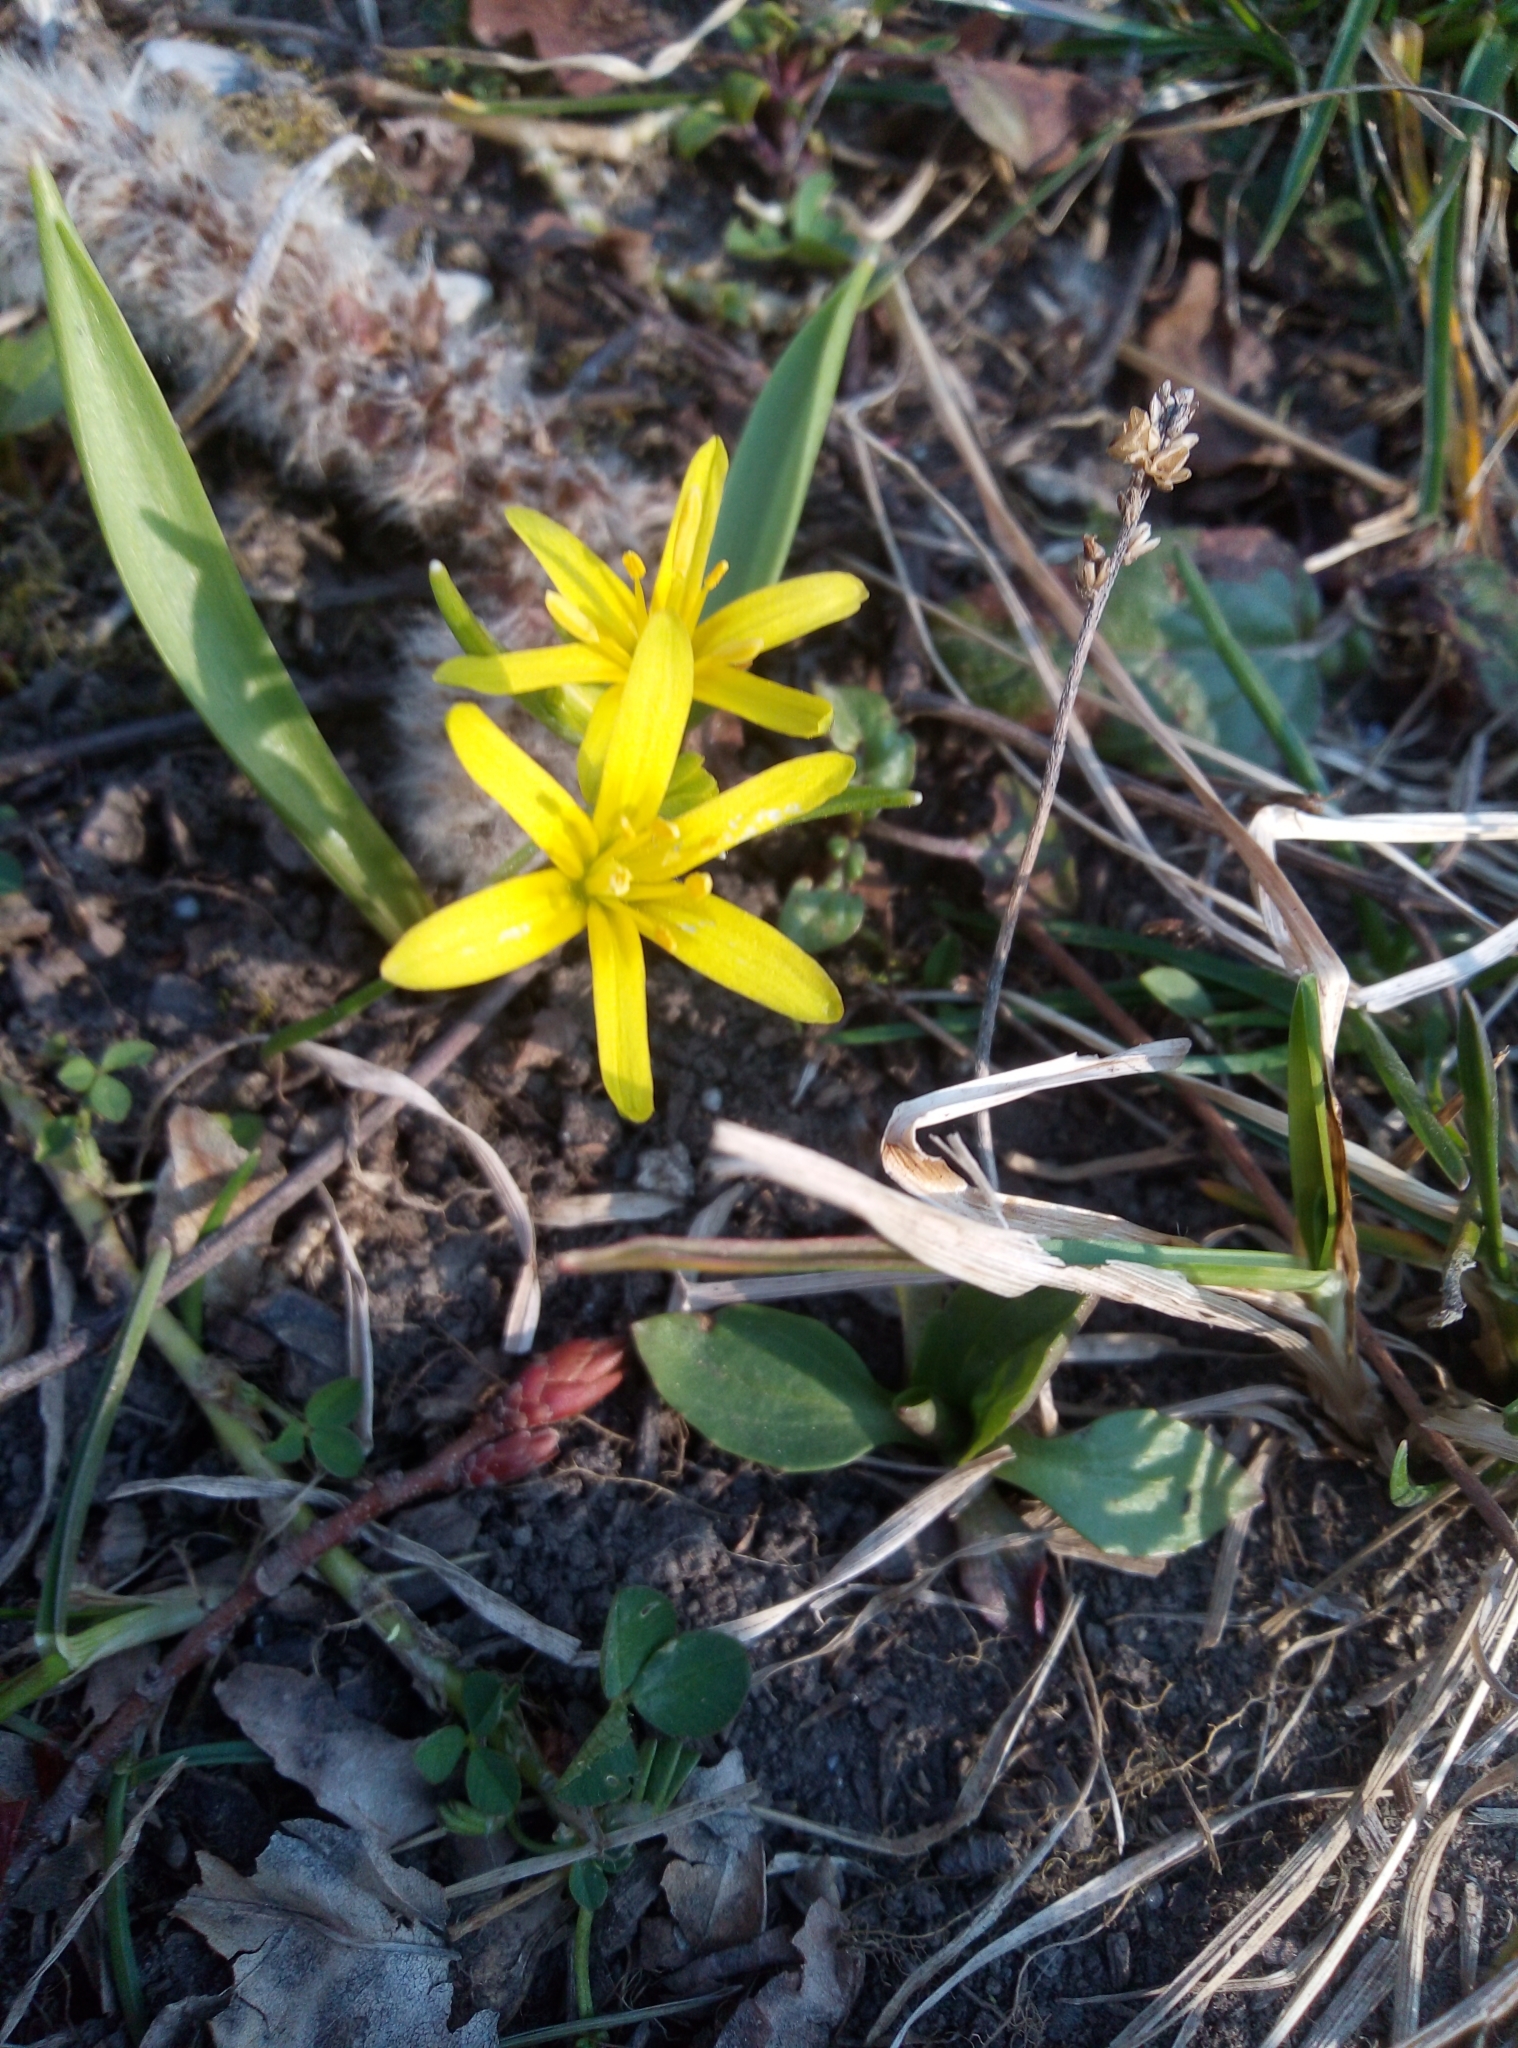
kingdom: Plantae
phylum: Tracheophyta
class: Liliopsida
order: Liliales
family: Liliaceae
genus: Gagea
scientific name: Gagea lutea
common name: Yellow star-of-bethlehem
